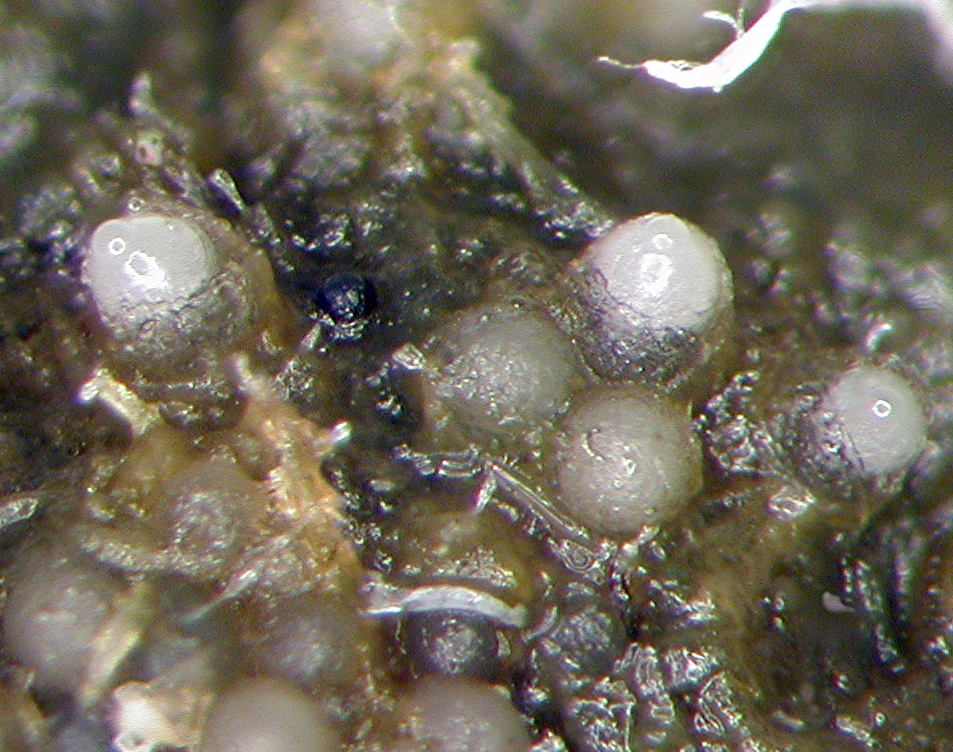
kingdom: Fungi
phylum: Ascomycota
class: Leotiomycetes
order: Thelebolales
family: Thelebolaceae
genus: Thelebolus
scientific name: Thelebolus stercoreus
